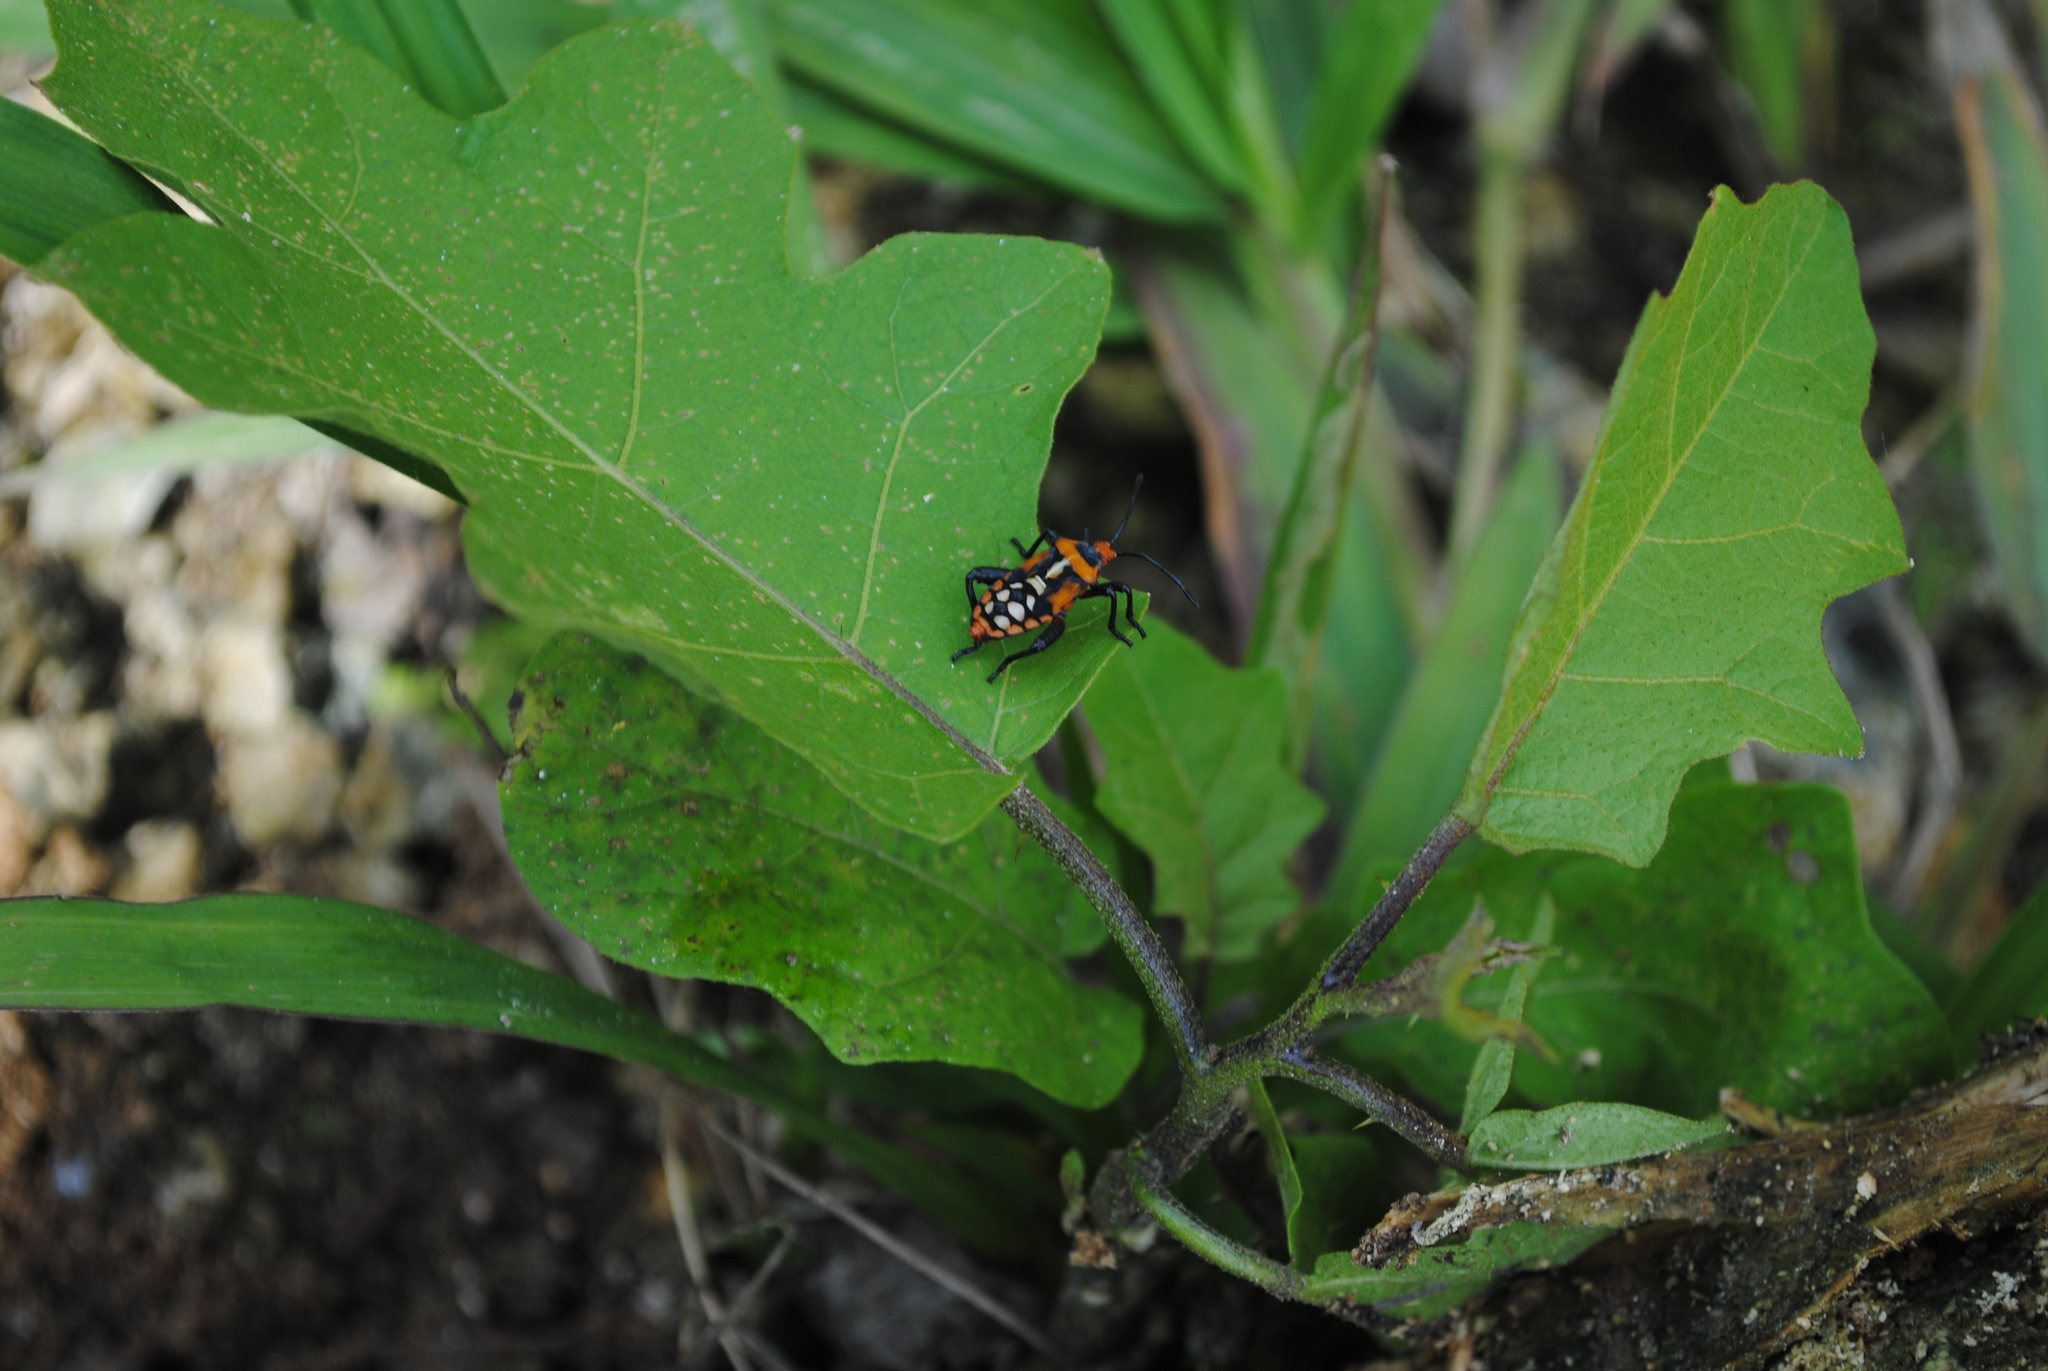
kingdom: Animalia
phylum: Arthropoda
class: Insecta
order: Hemiptera
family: Coreidae
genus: Sagotylus
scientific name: Sagotylus confluens
